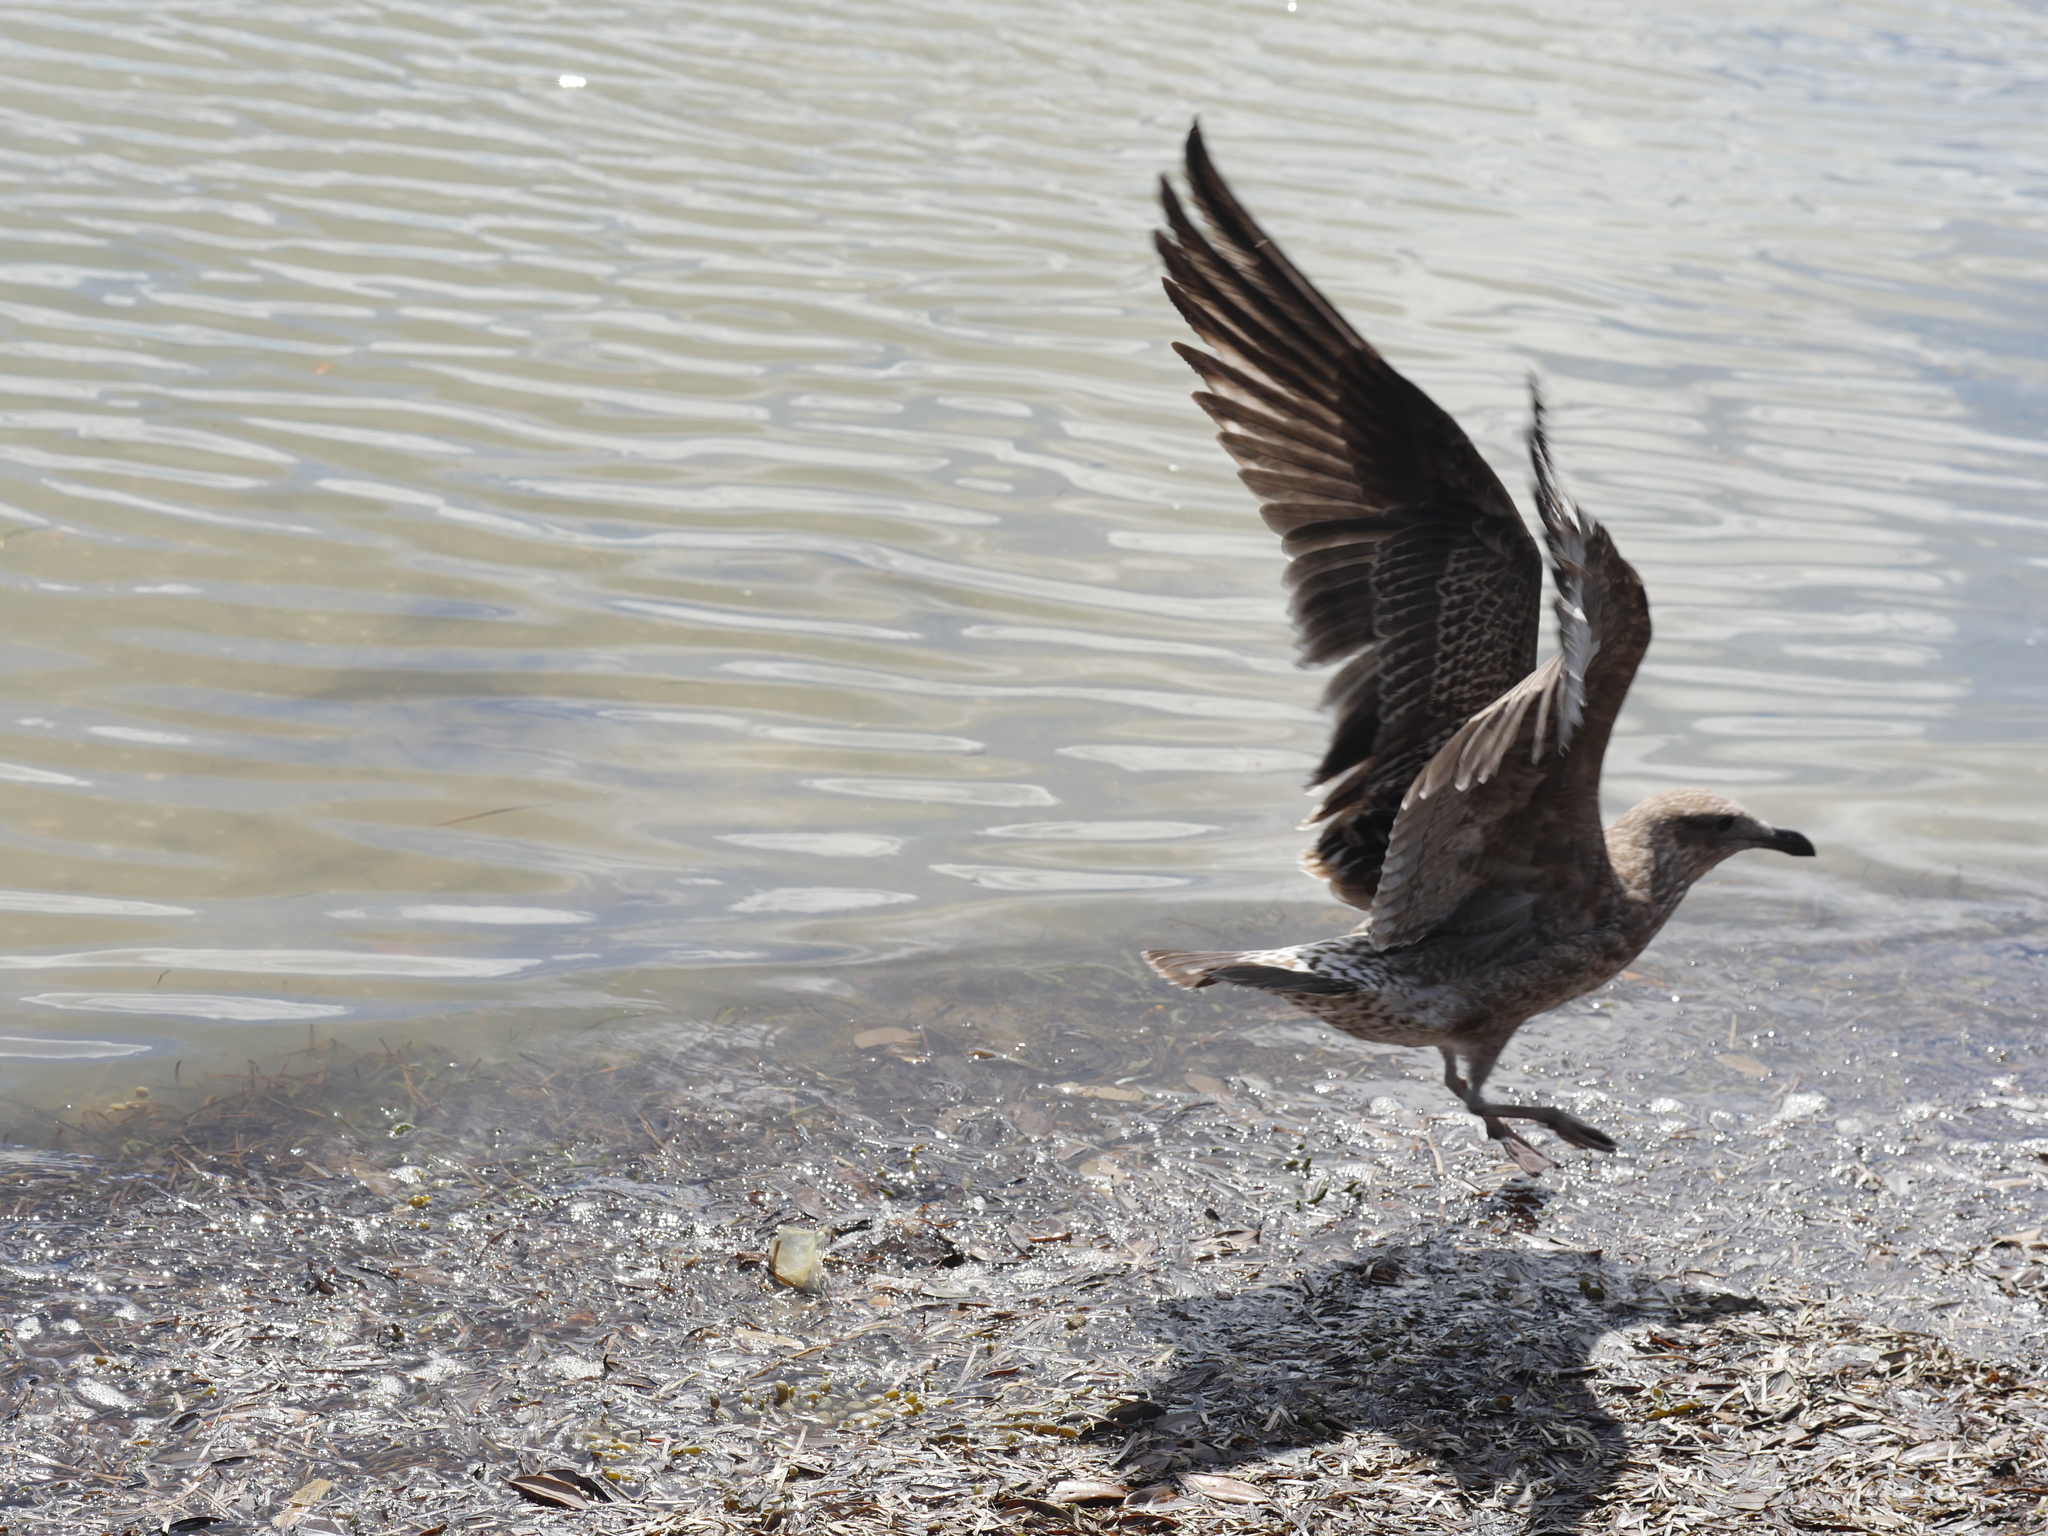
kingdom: Animalia
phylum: Chordata
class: Aves
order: Charadriiformes
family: Laridae
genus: Larus
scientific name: Larus dominicanus
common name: Kelp gull
